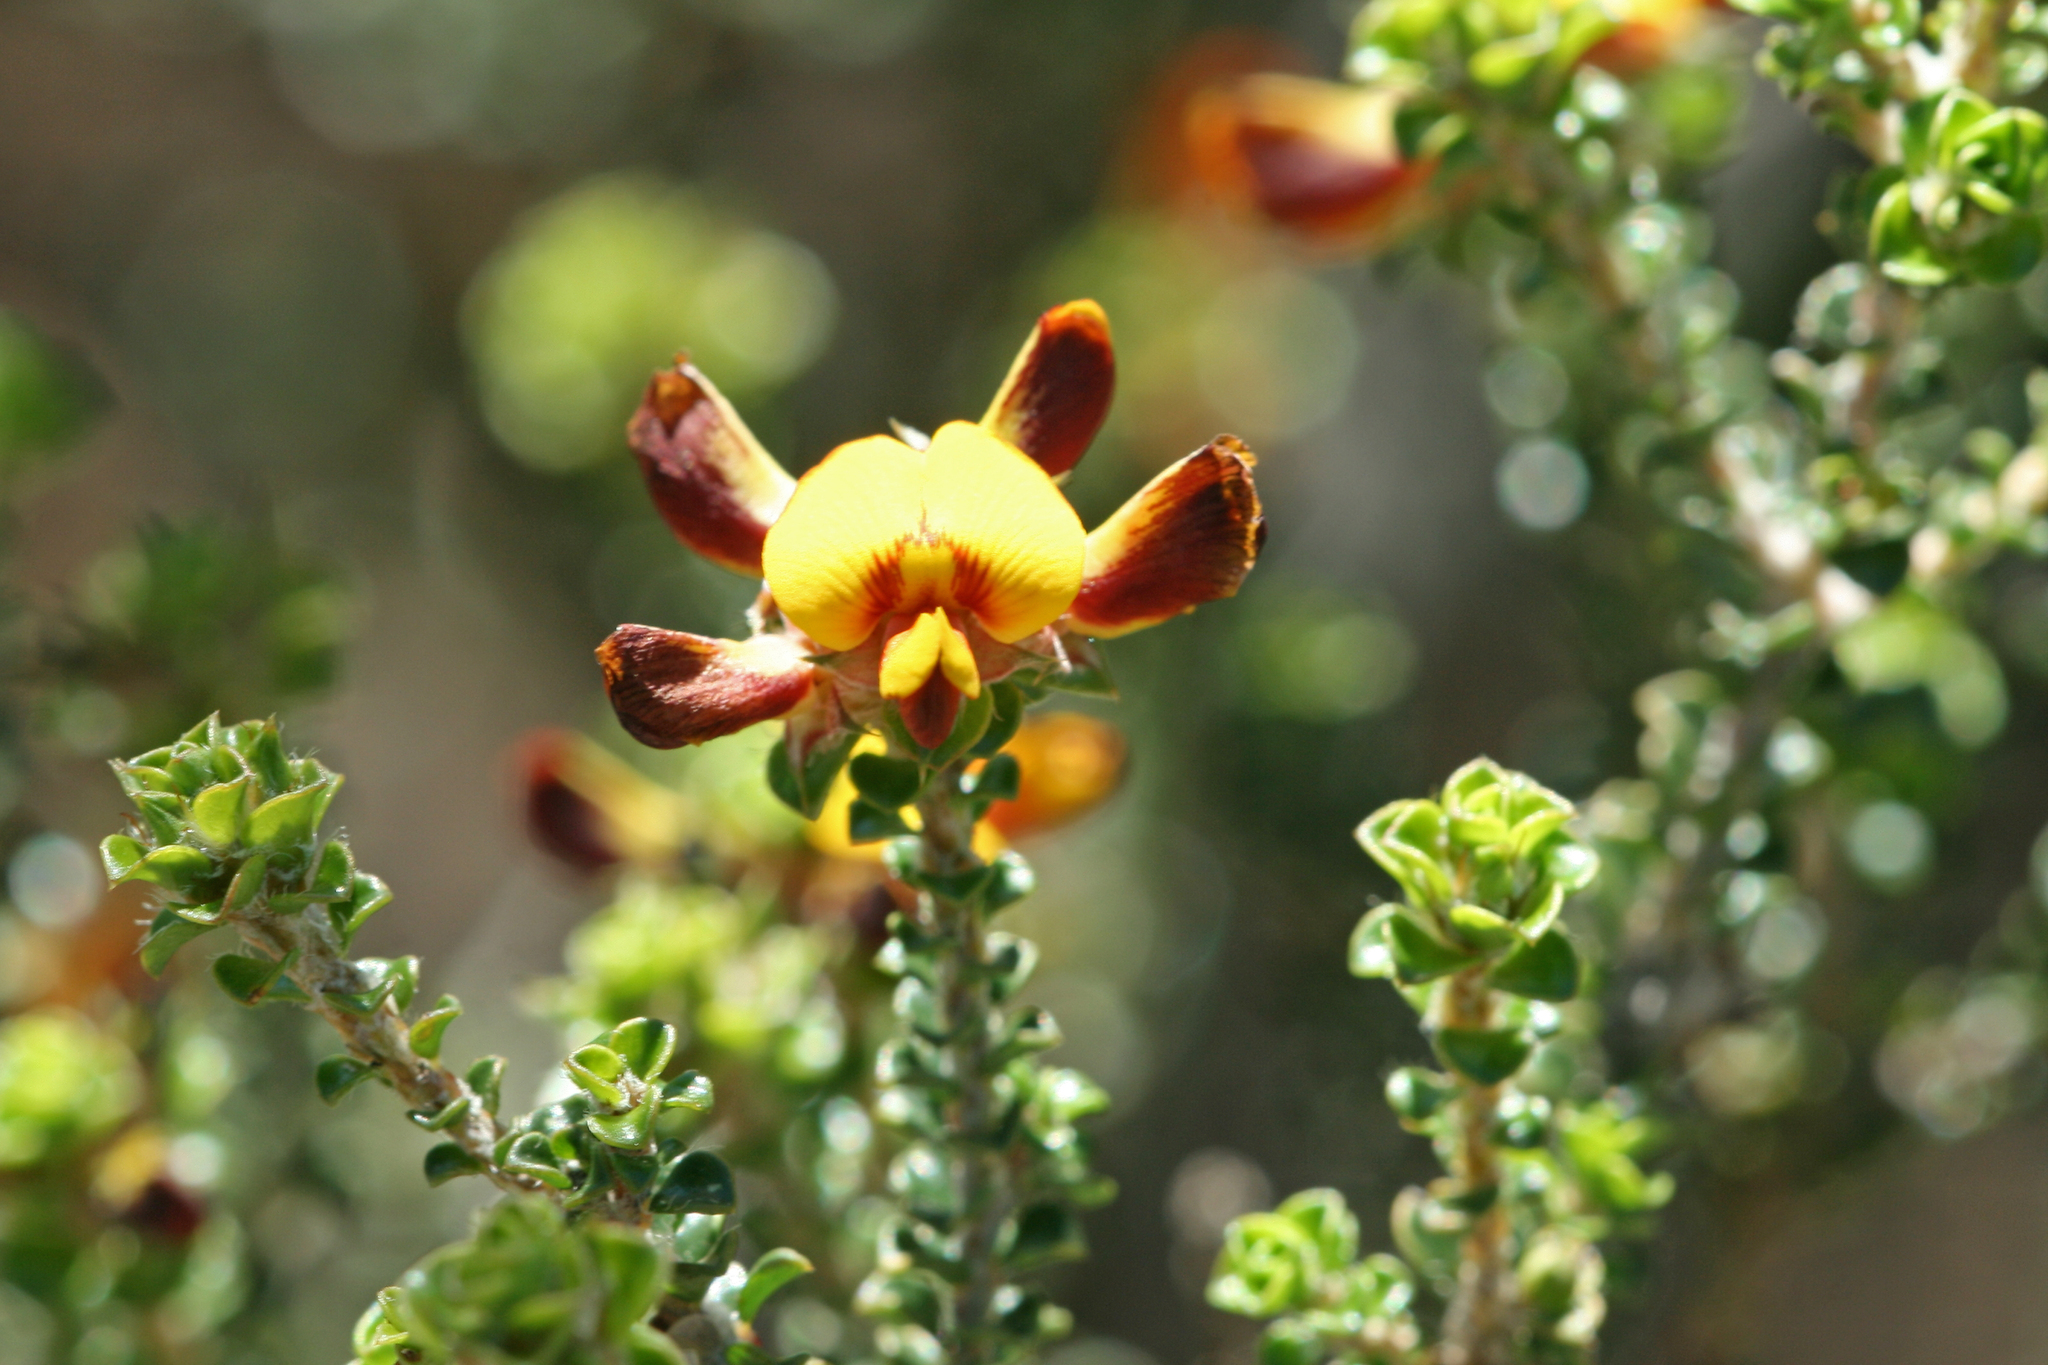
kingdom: Plantae
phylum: Tracheophyta
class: Magnoliopsida
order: Fabales
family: Fabaceae
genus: Pultenaea
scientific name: Pultenaea densifolia
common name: Dense-leaf bush-pea
